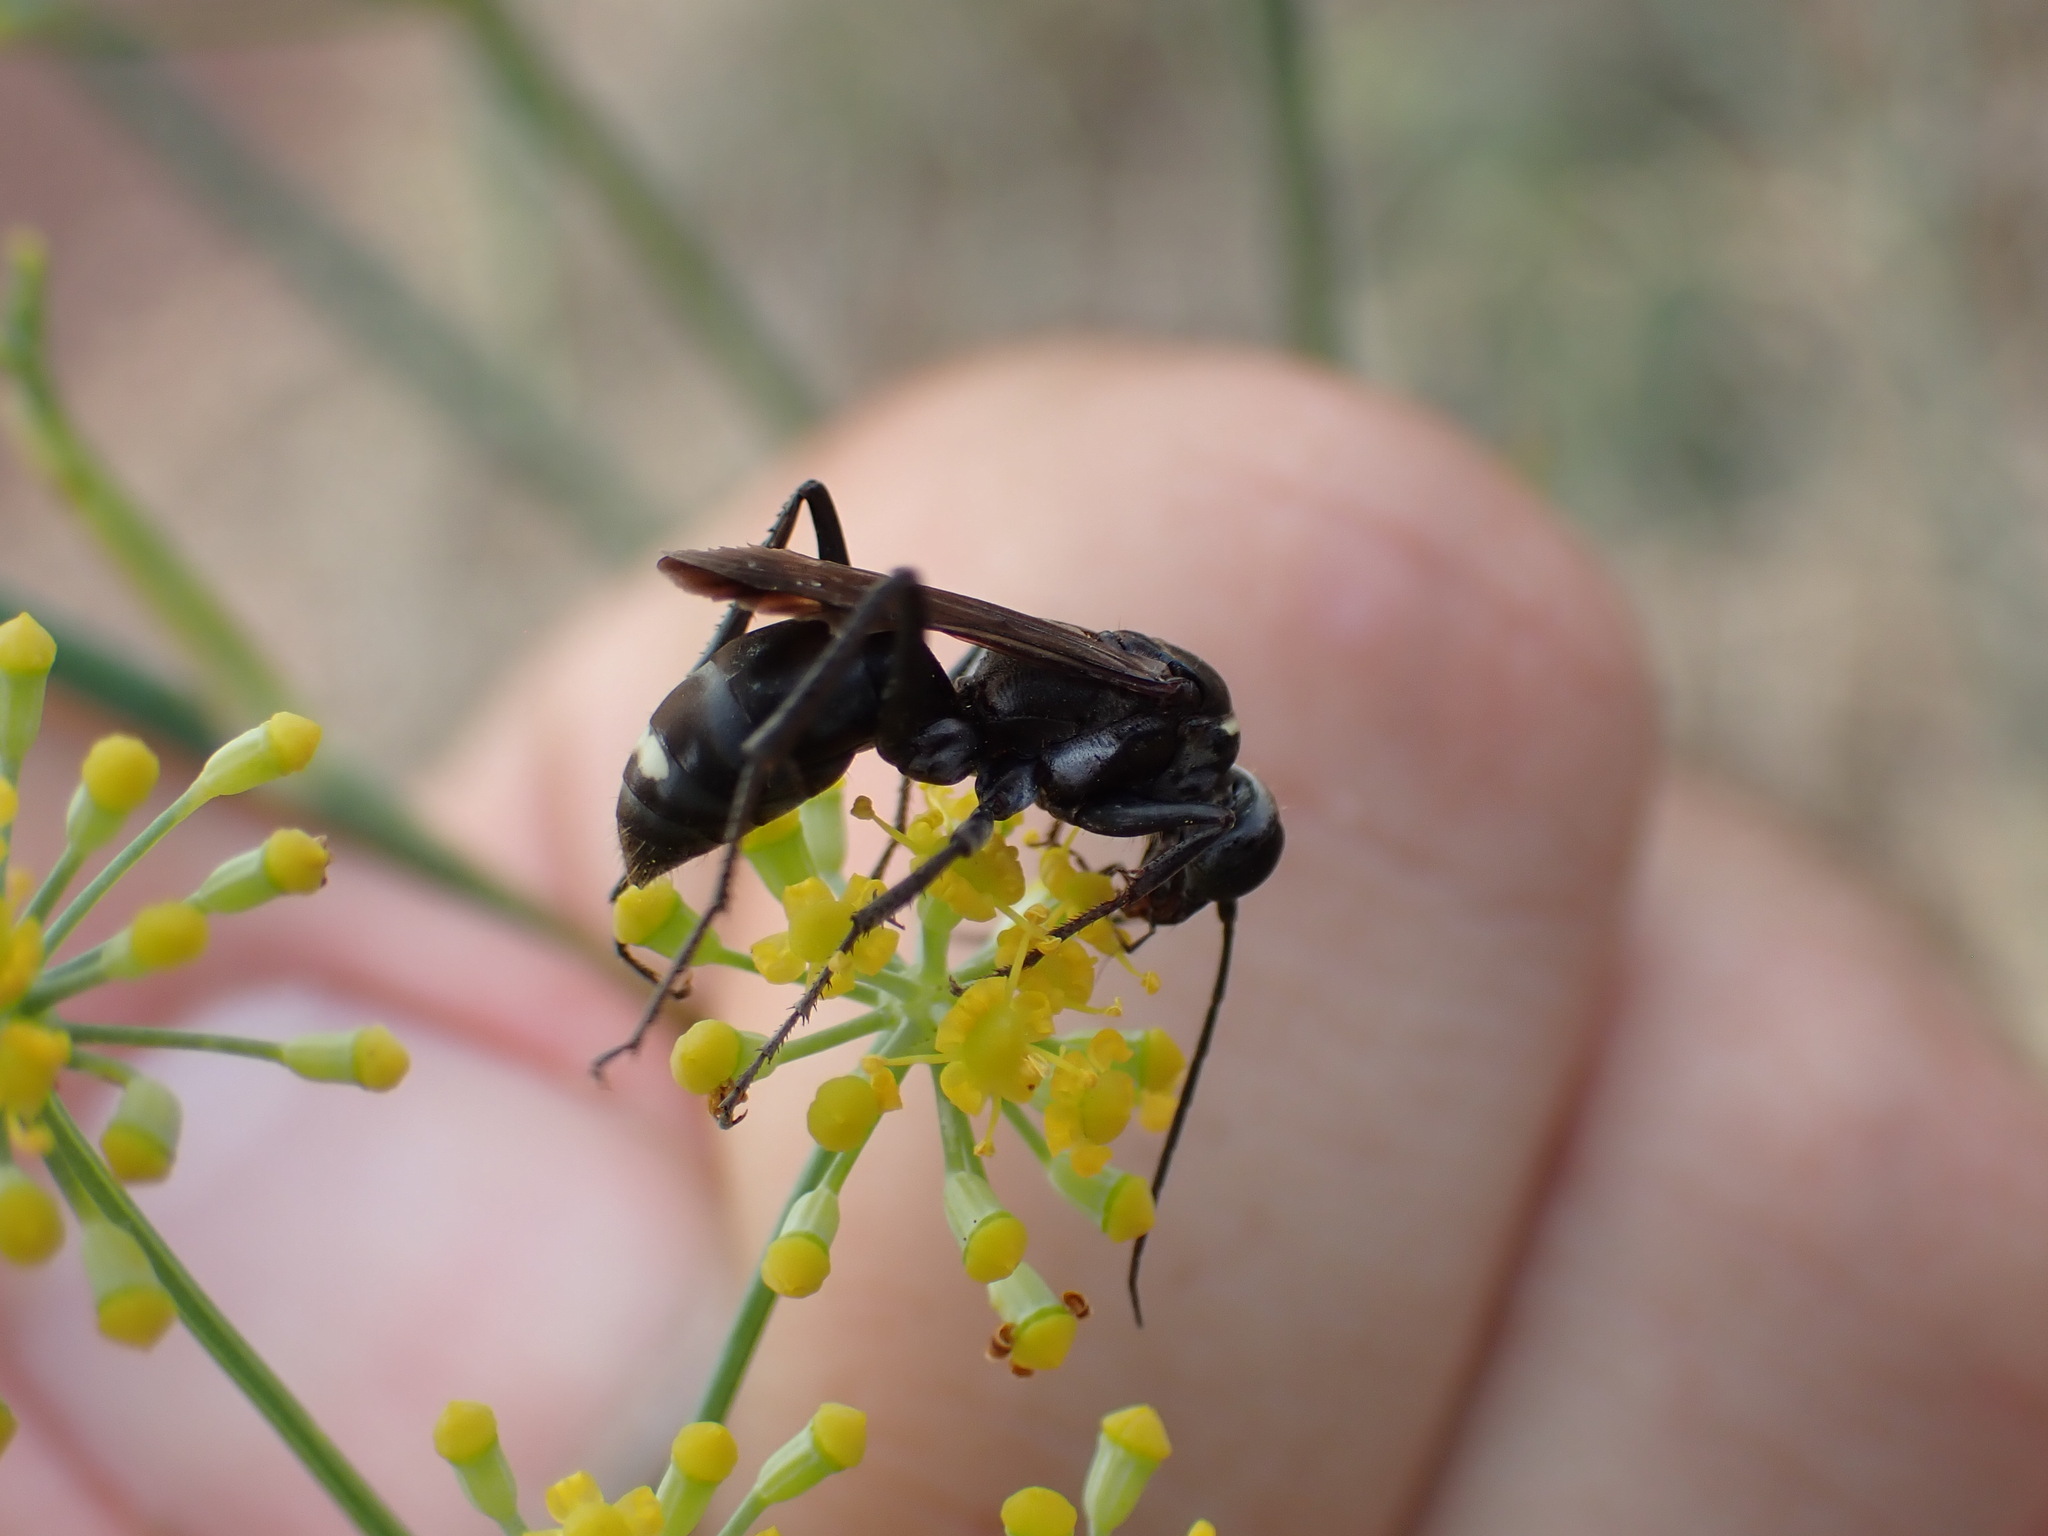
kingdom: Animalia
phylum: Arthropoda
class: Insecta
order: Hymenoptera
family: Pompilidae
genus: Cryptocheilus
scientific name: Cryptocheilus hispanicus
